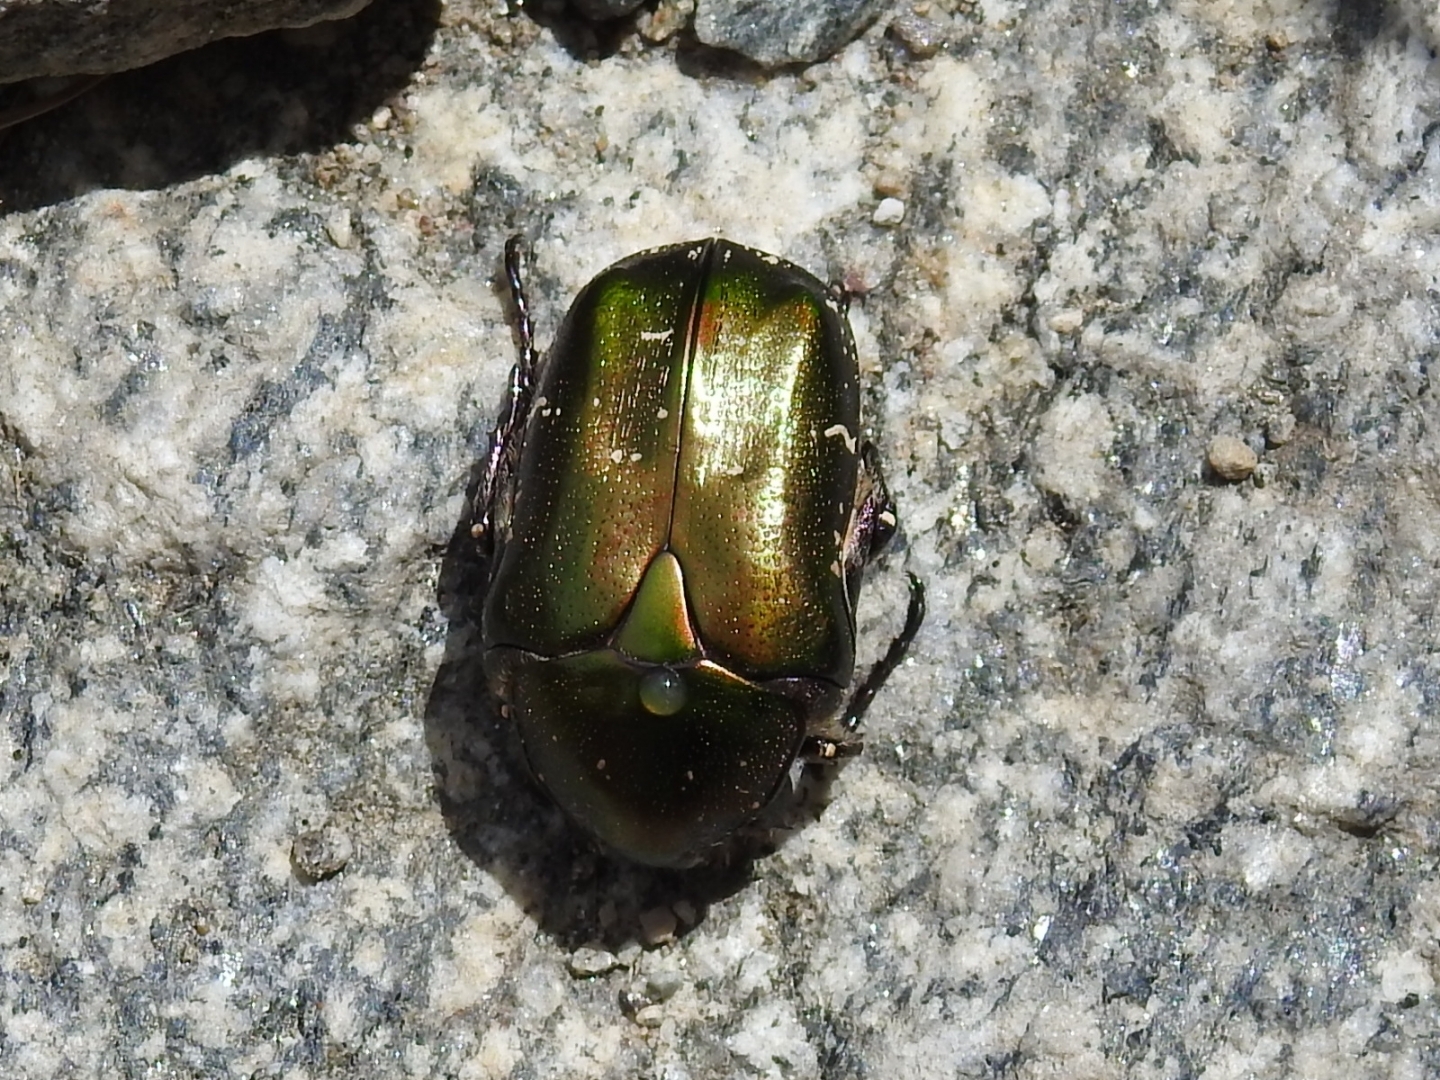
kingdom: Animalia
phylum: Arthropoda
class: Insecta
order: Coleoptera
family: Scarabaeidae
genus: Protaetia
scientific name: Protaetia cuprea
